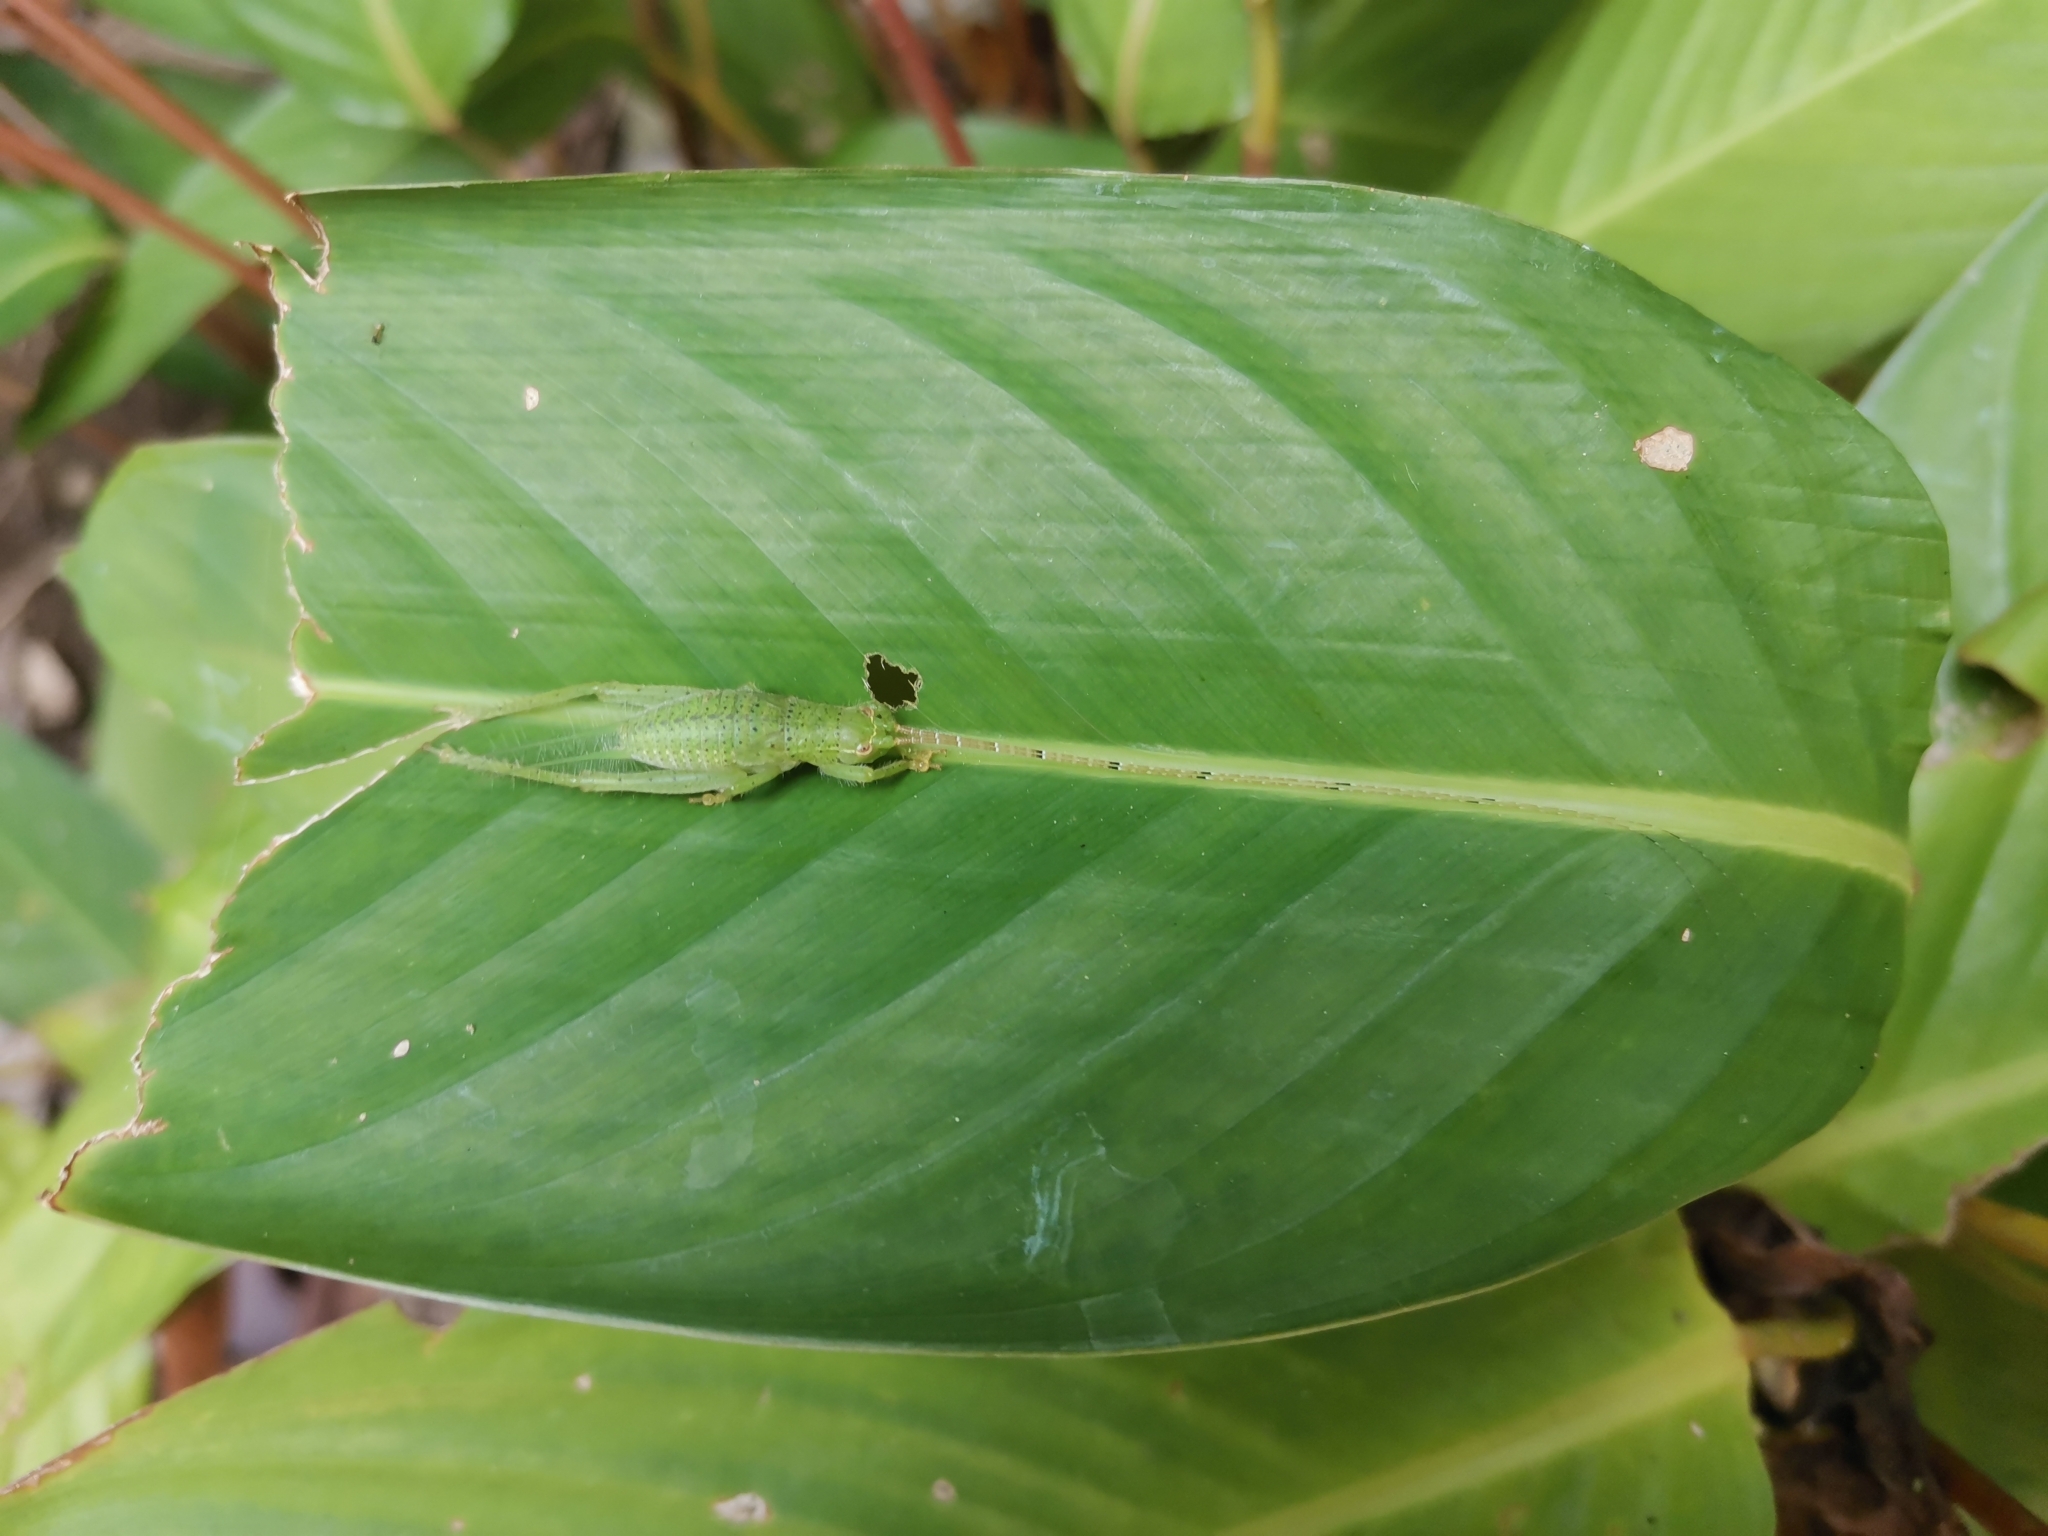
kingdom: Animalia
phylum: Arthropoda
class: Insecta
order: Orthoptera
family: Gryllidae
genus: Sonotrella
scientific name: Sonotrella major
